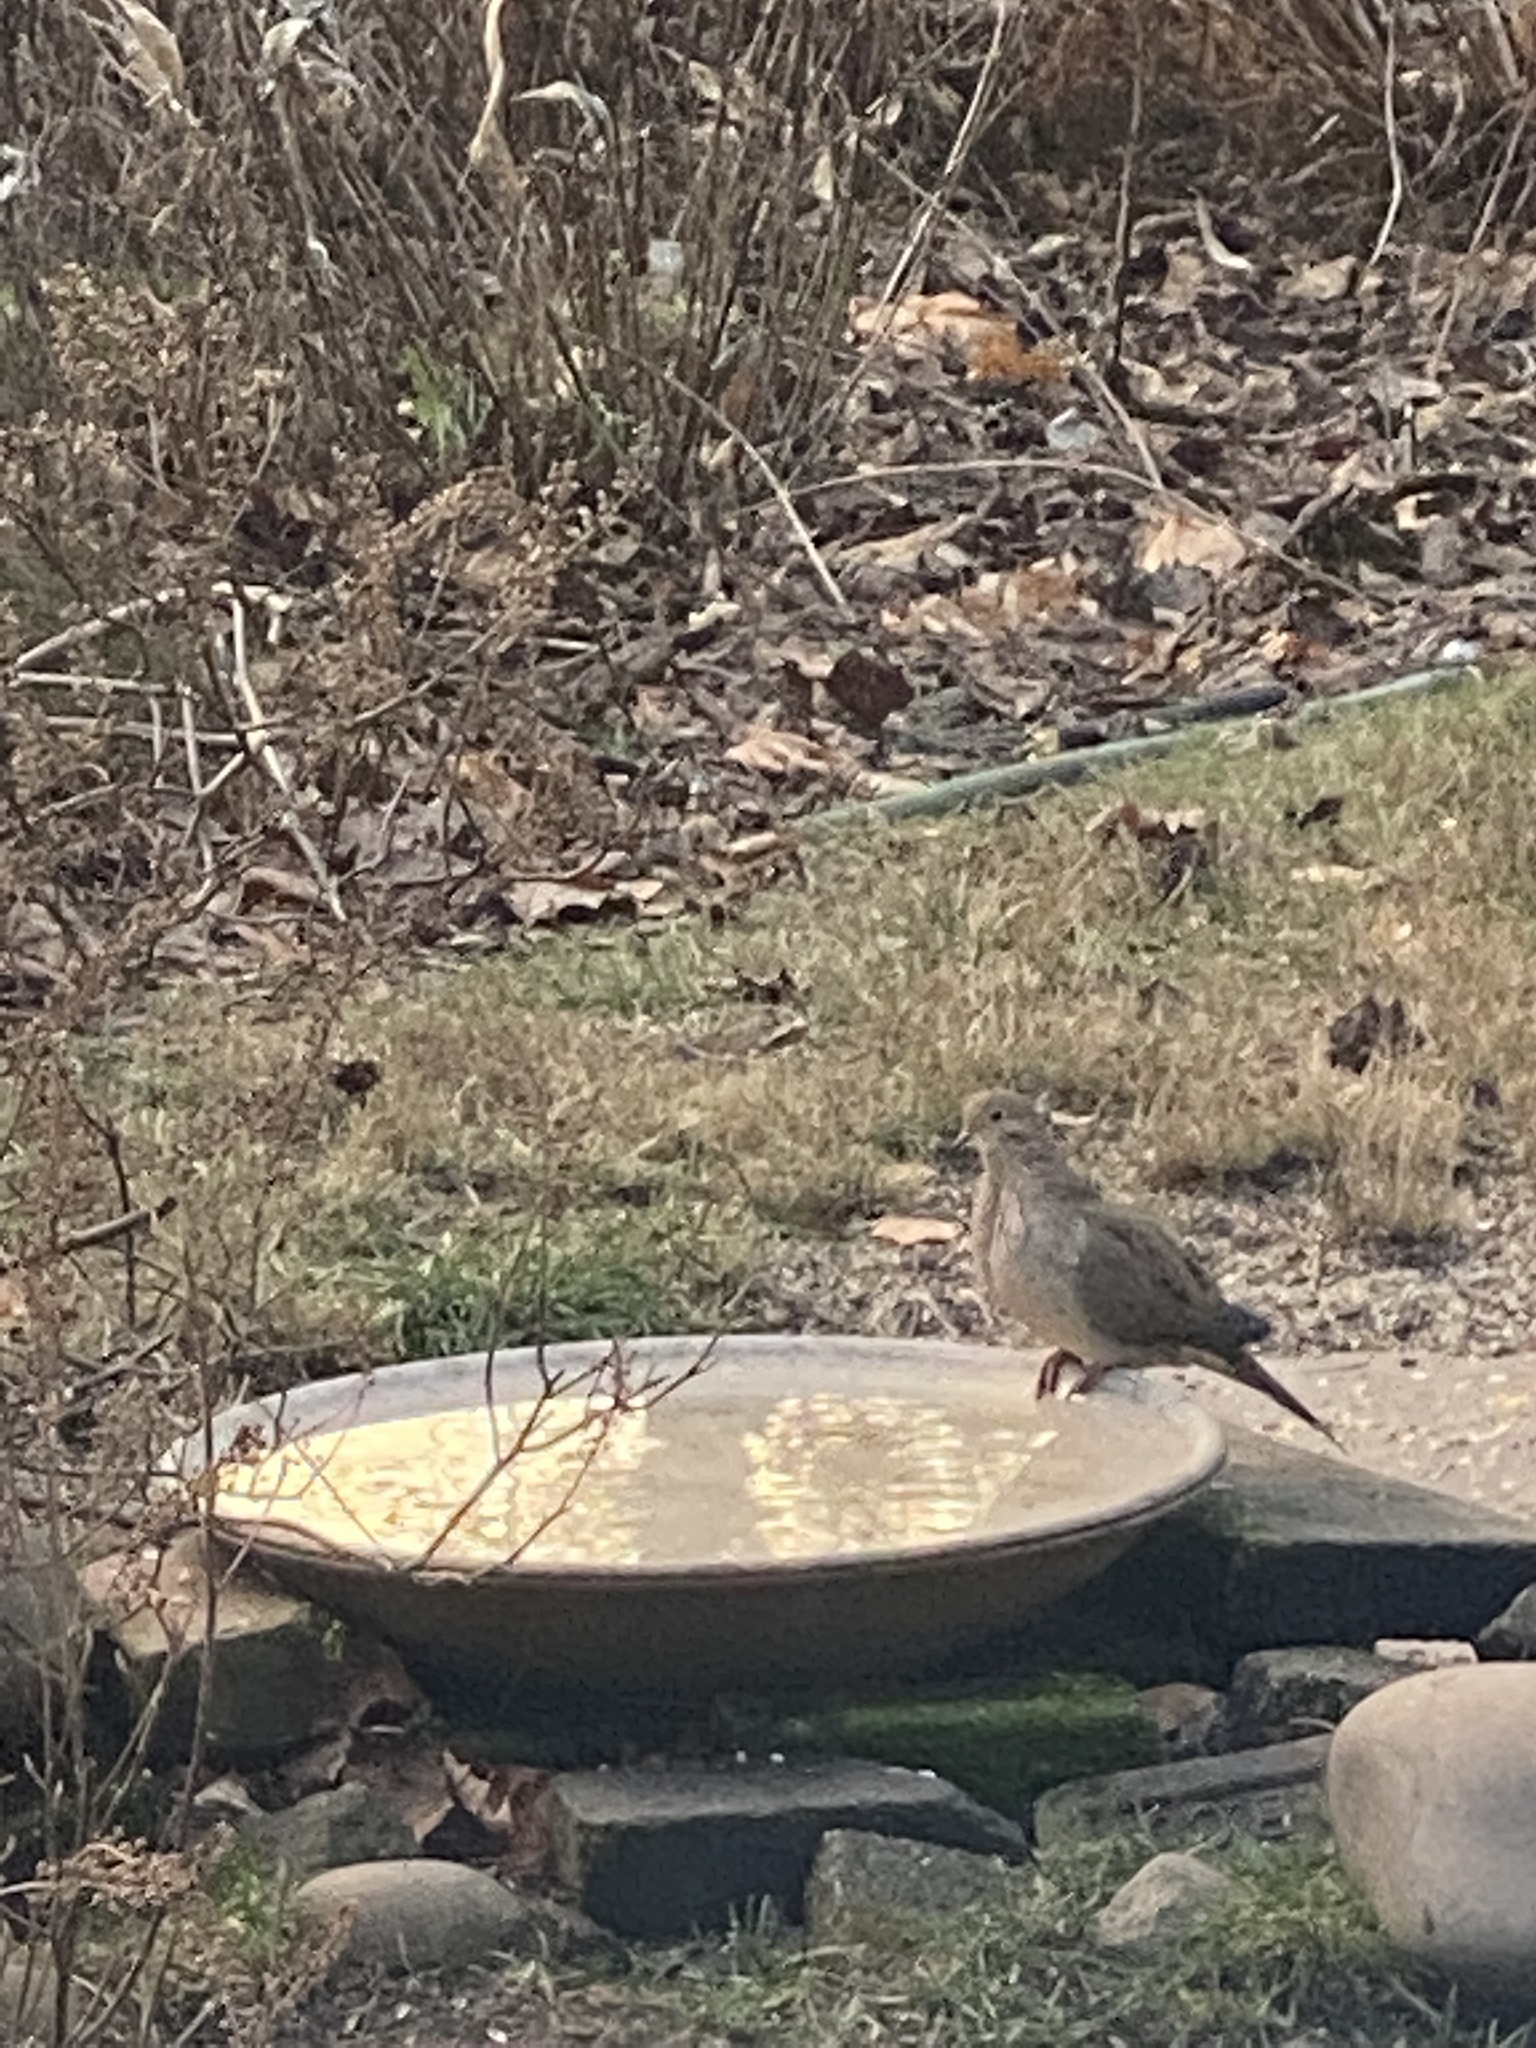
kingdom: Animalia
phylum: Chordata
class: Aves
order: Columbiformes
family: Columbidae
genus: Zenaida
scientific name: Zenaida macroura
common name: Mourning dove
